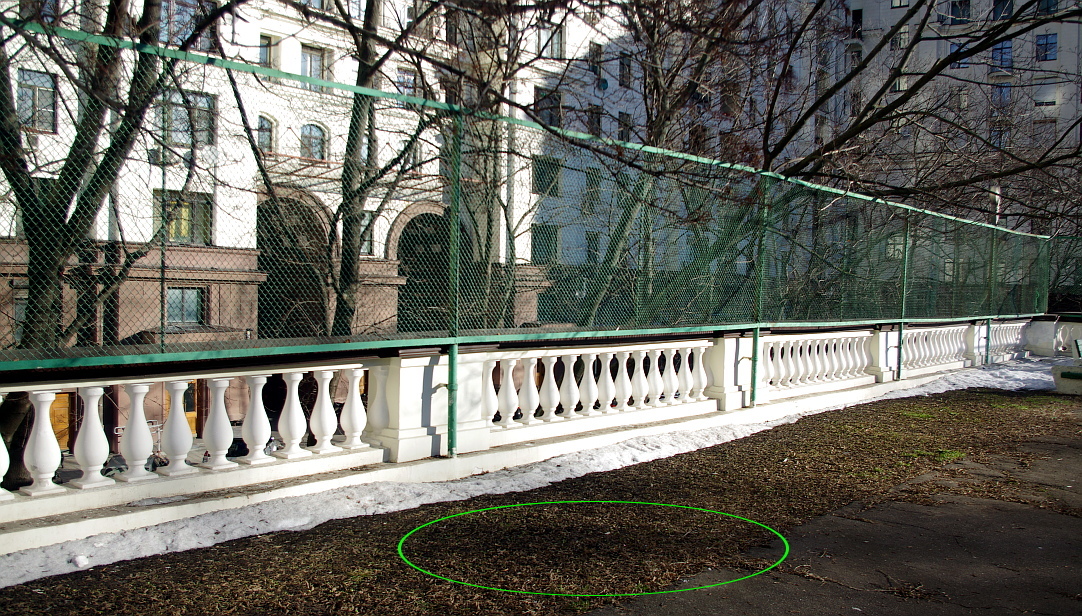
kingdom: Plantae
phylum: Tracheophyta
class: Magnoliopsida
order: Sapindales
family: Sapindaceae
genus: Acer
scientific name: Acer platanoides
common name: Norway maple
